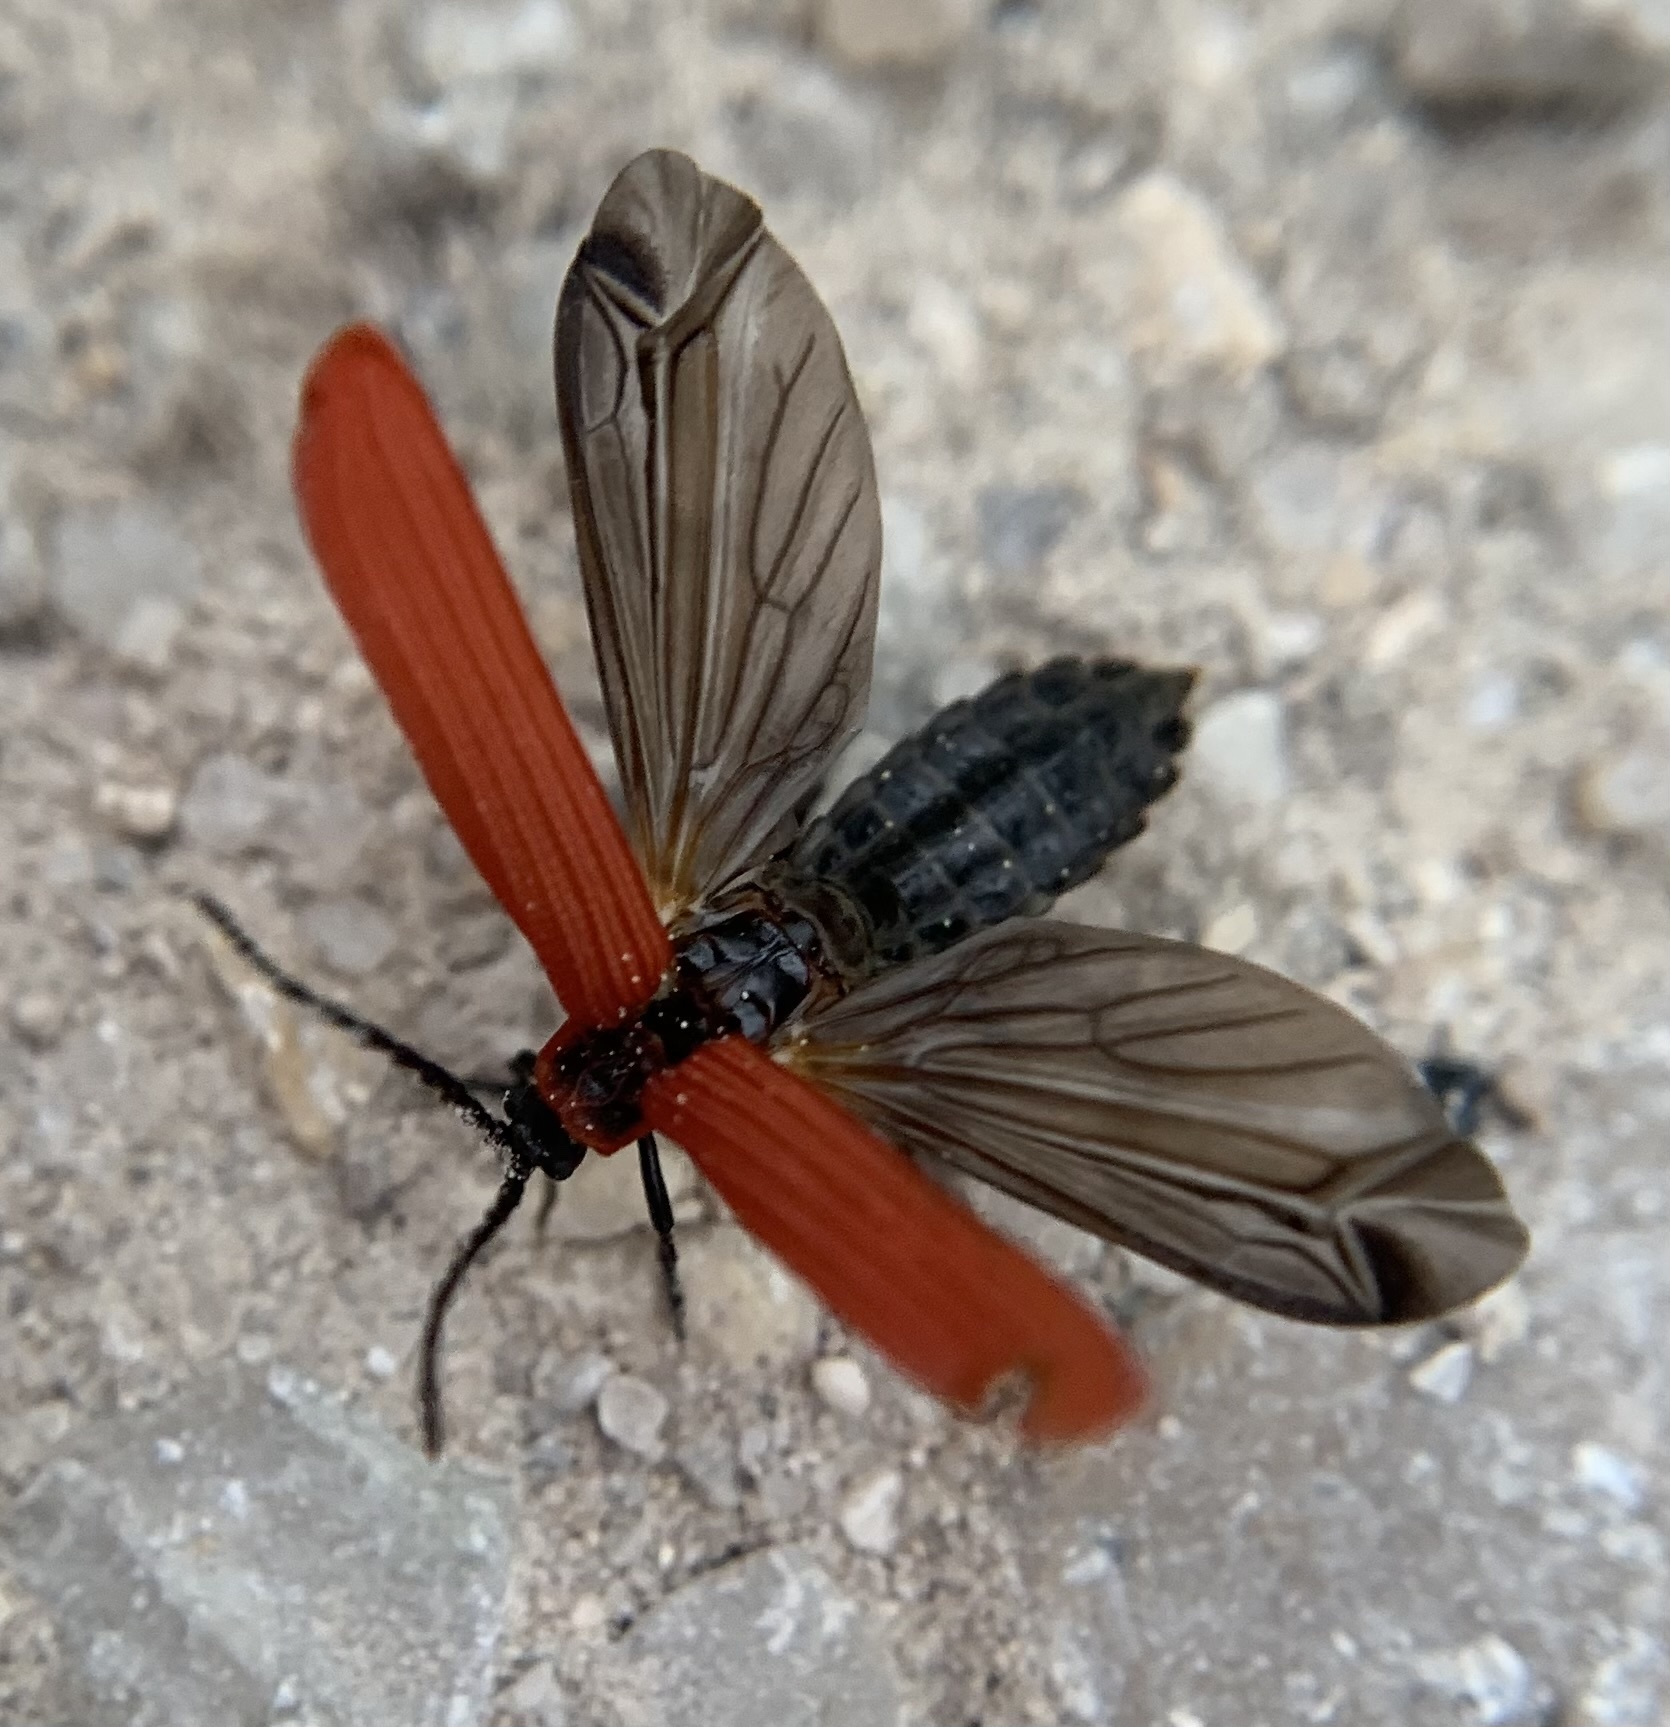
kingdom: Animalia
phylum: Arthropoda
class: Insecta
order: Coleoptera
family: Lycidae
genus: Dictyoptera
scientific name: Dictyoptera aurora
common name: Golden net-winged beetle
